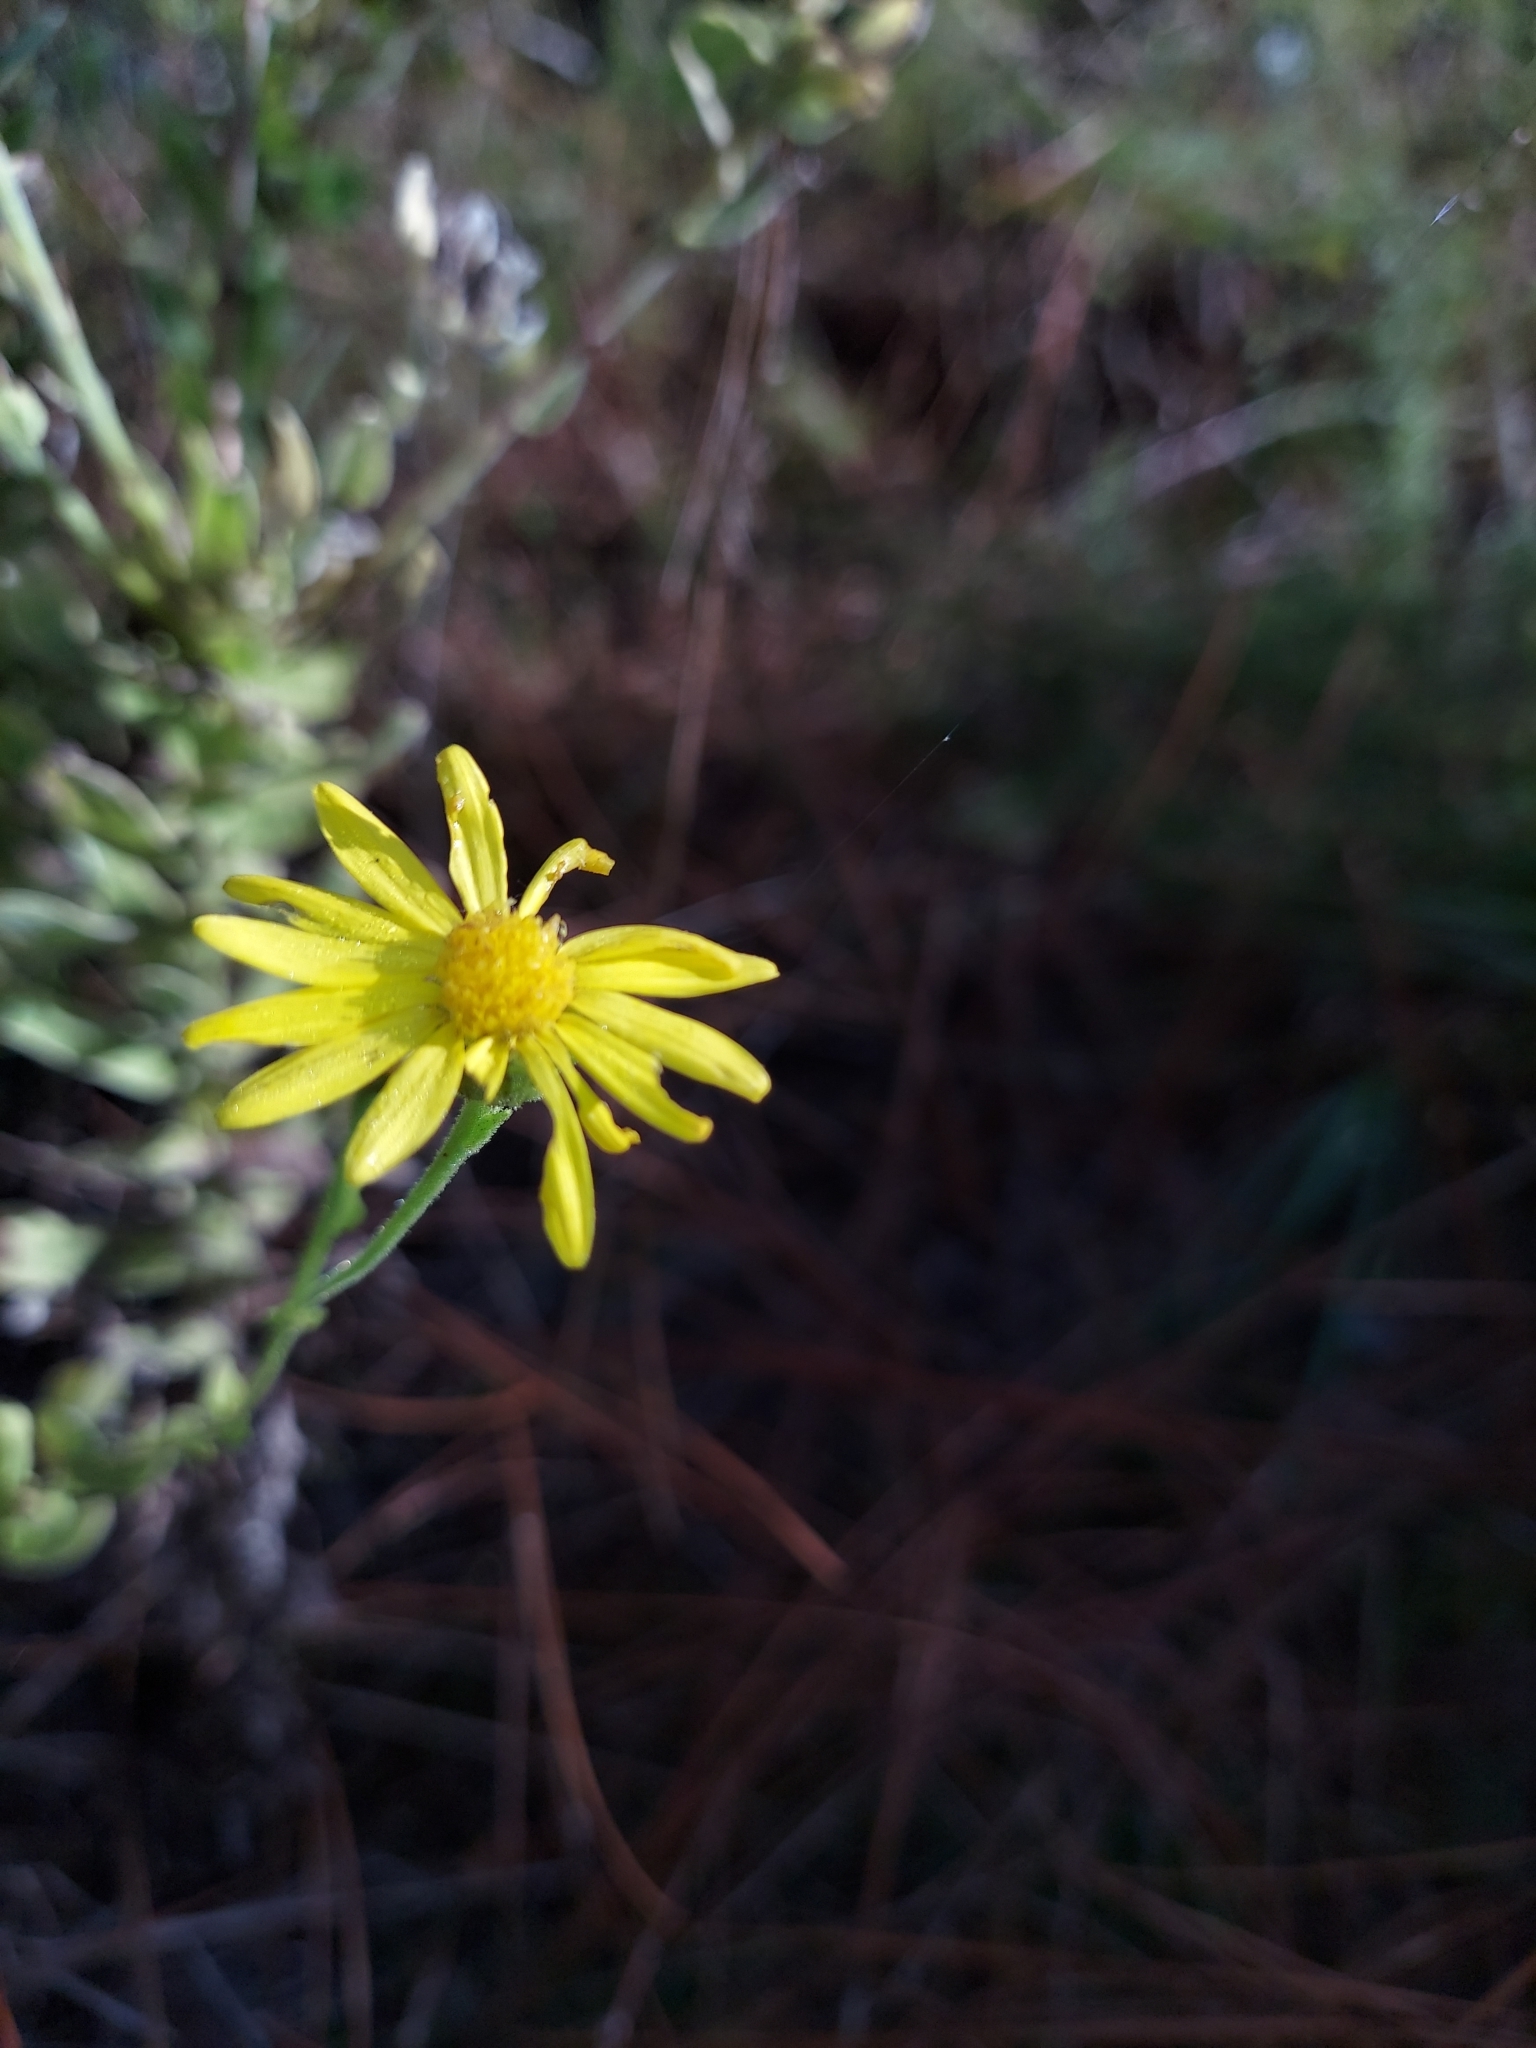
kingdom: Plantae
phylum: Tracheophyta
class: Magnoliopsida
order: Asterales
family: Asteraceae
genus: Chrysopsis
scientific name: Chrysopsis latisquamea
